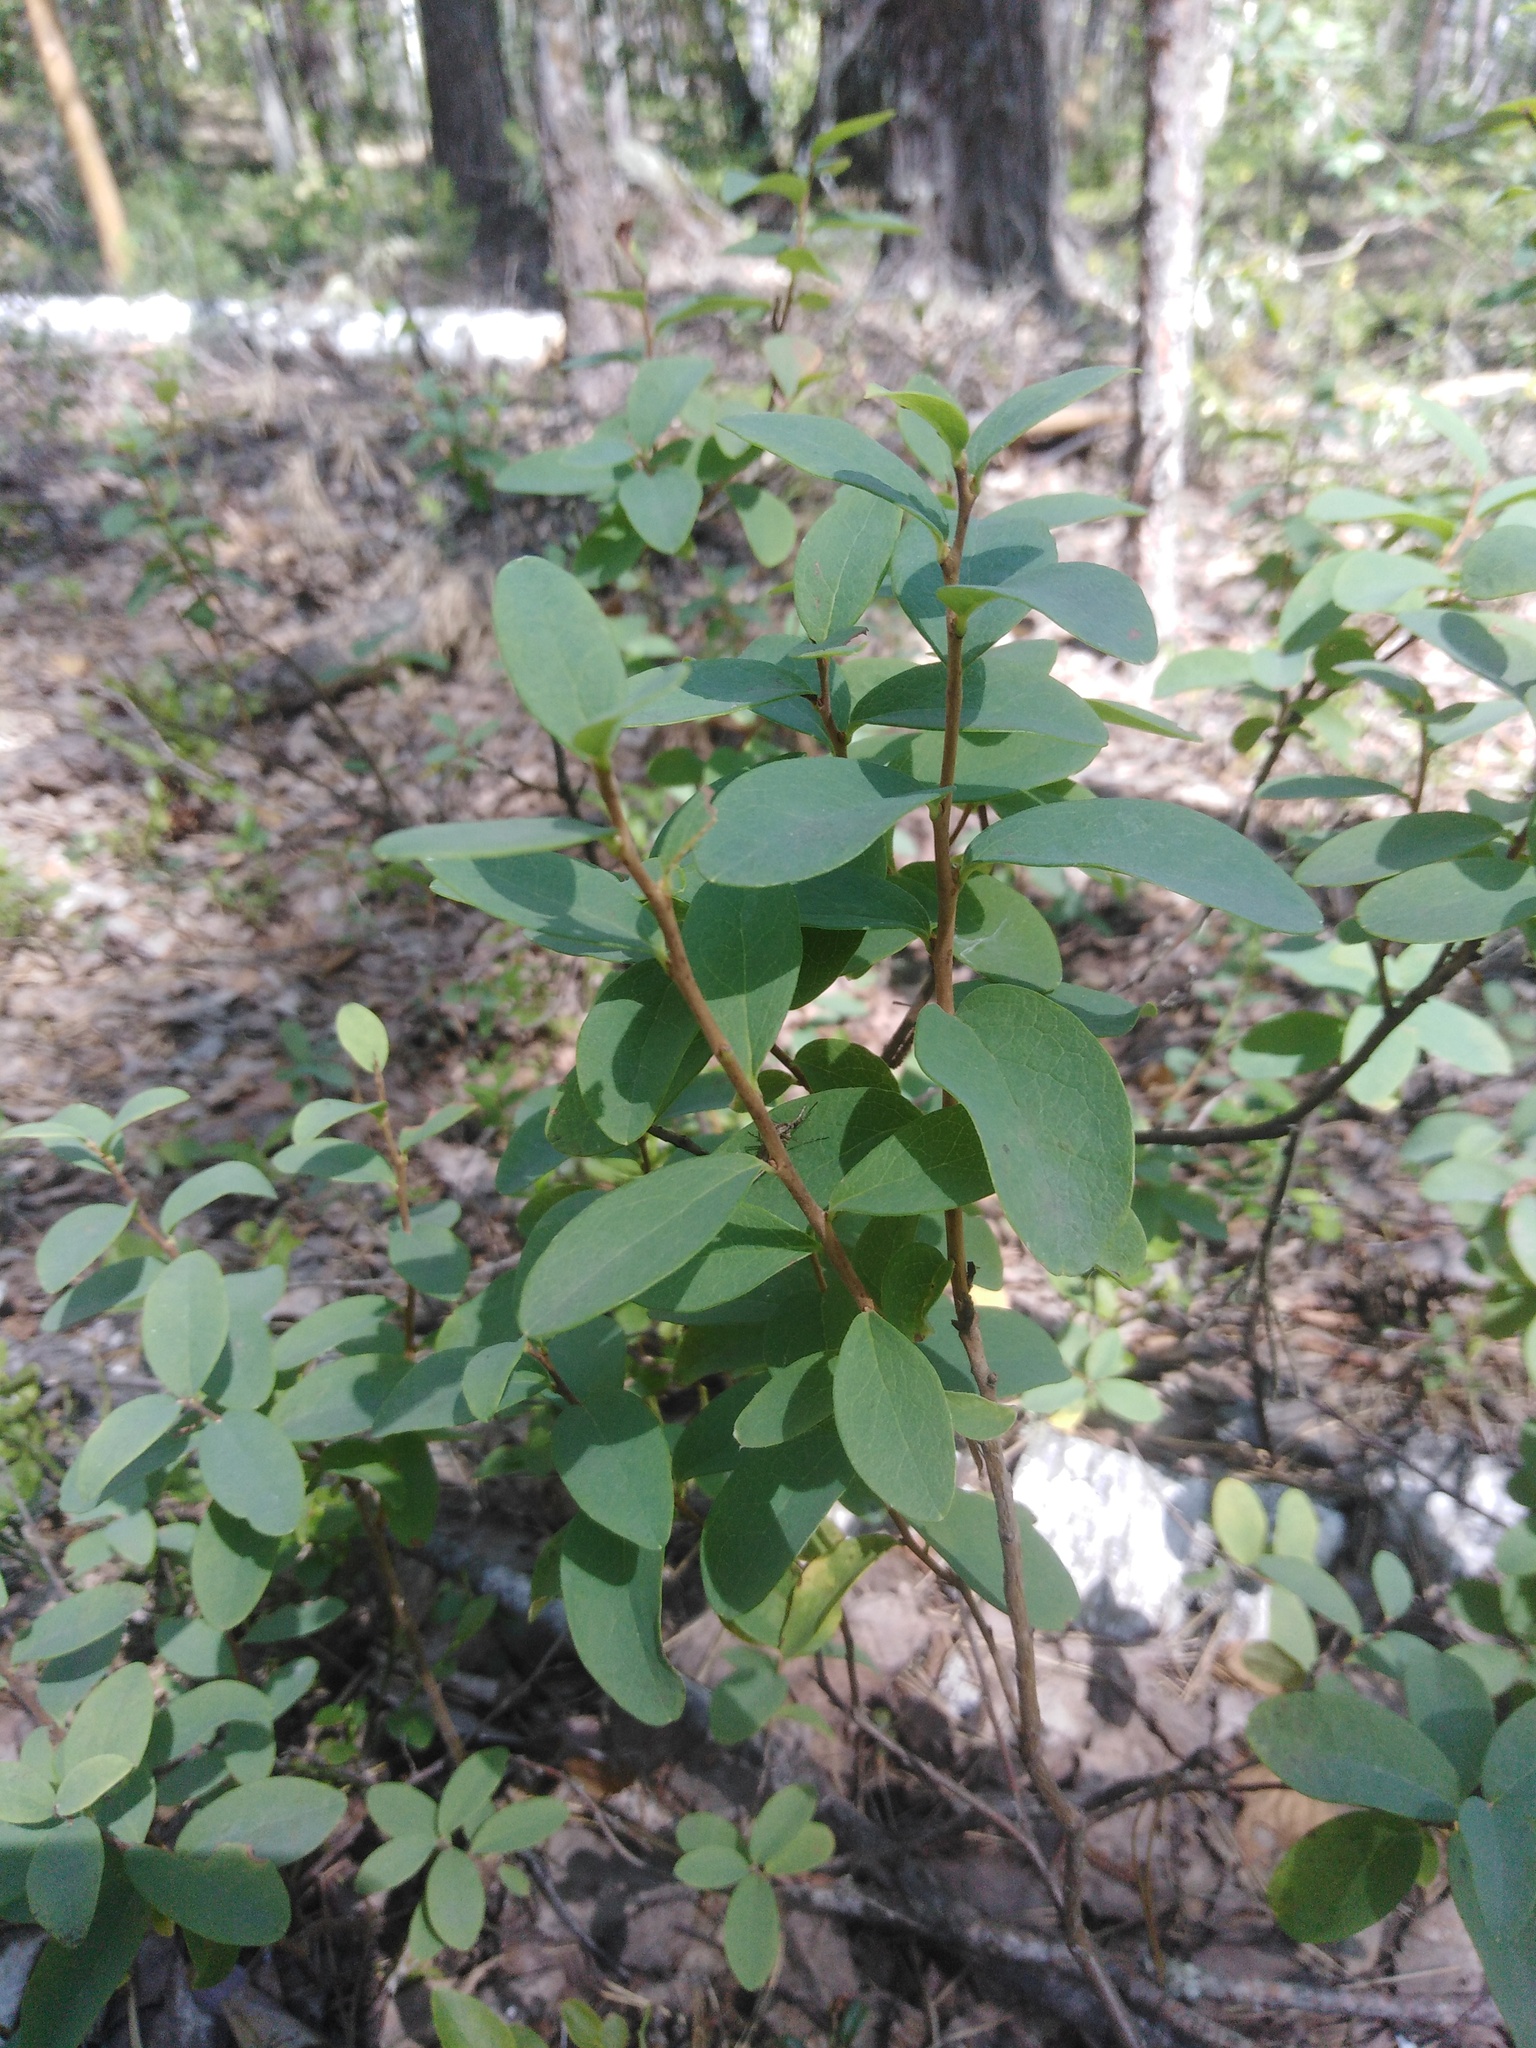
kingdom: Plantae
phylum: Tracheophyta
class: Magnoliopsida
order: Ericales
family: Ericaceae
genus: Vaccinium
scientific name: Vaccinium uliginosum
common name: Bog bilberry
